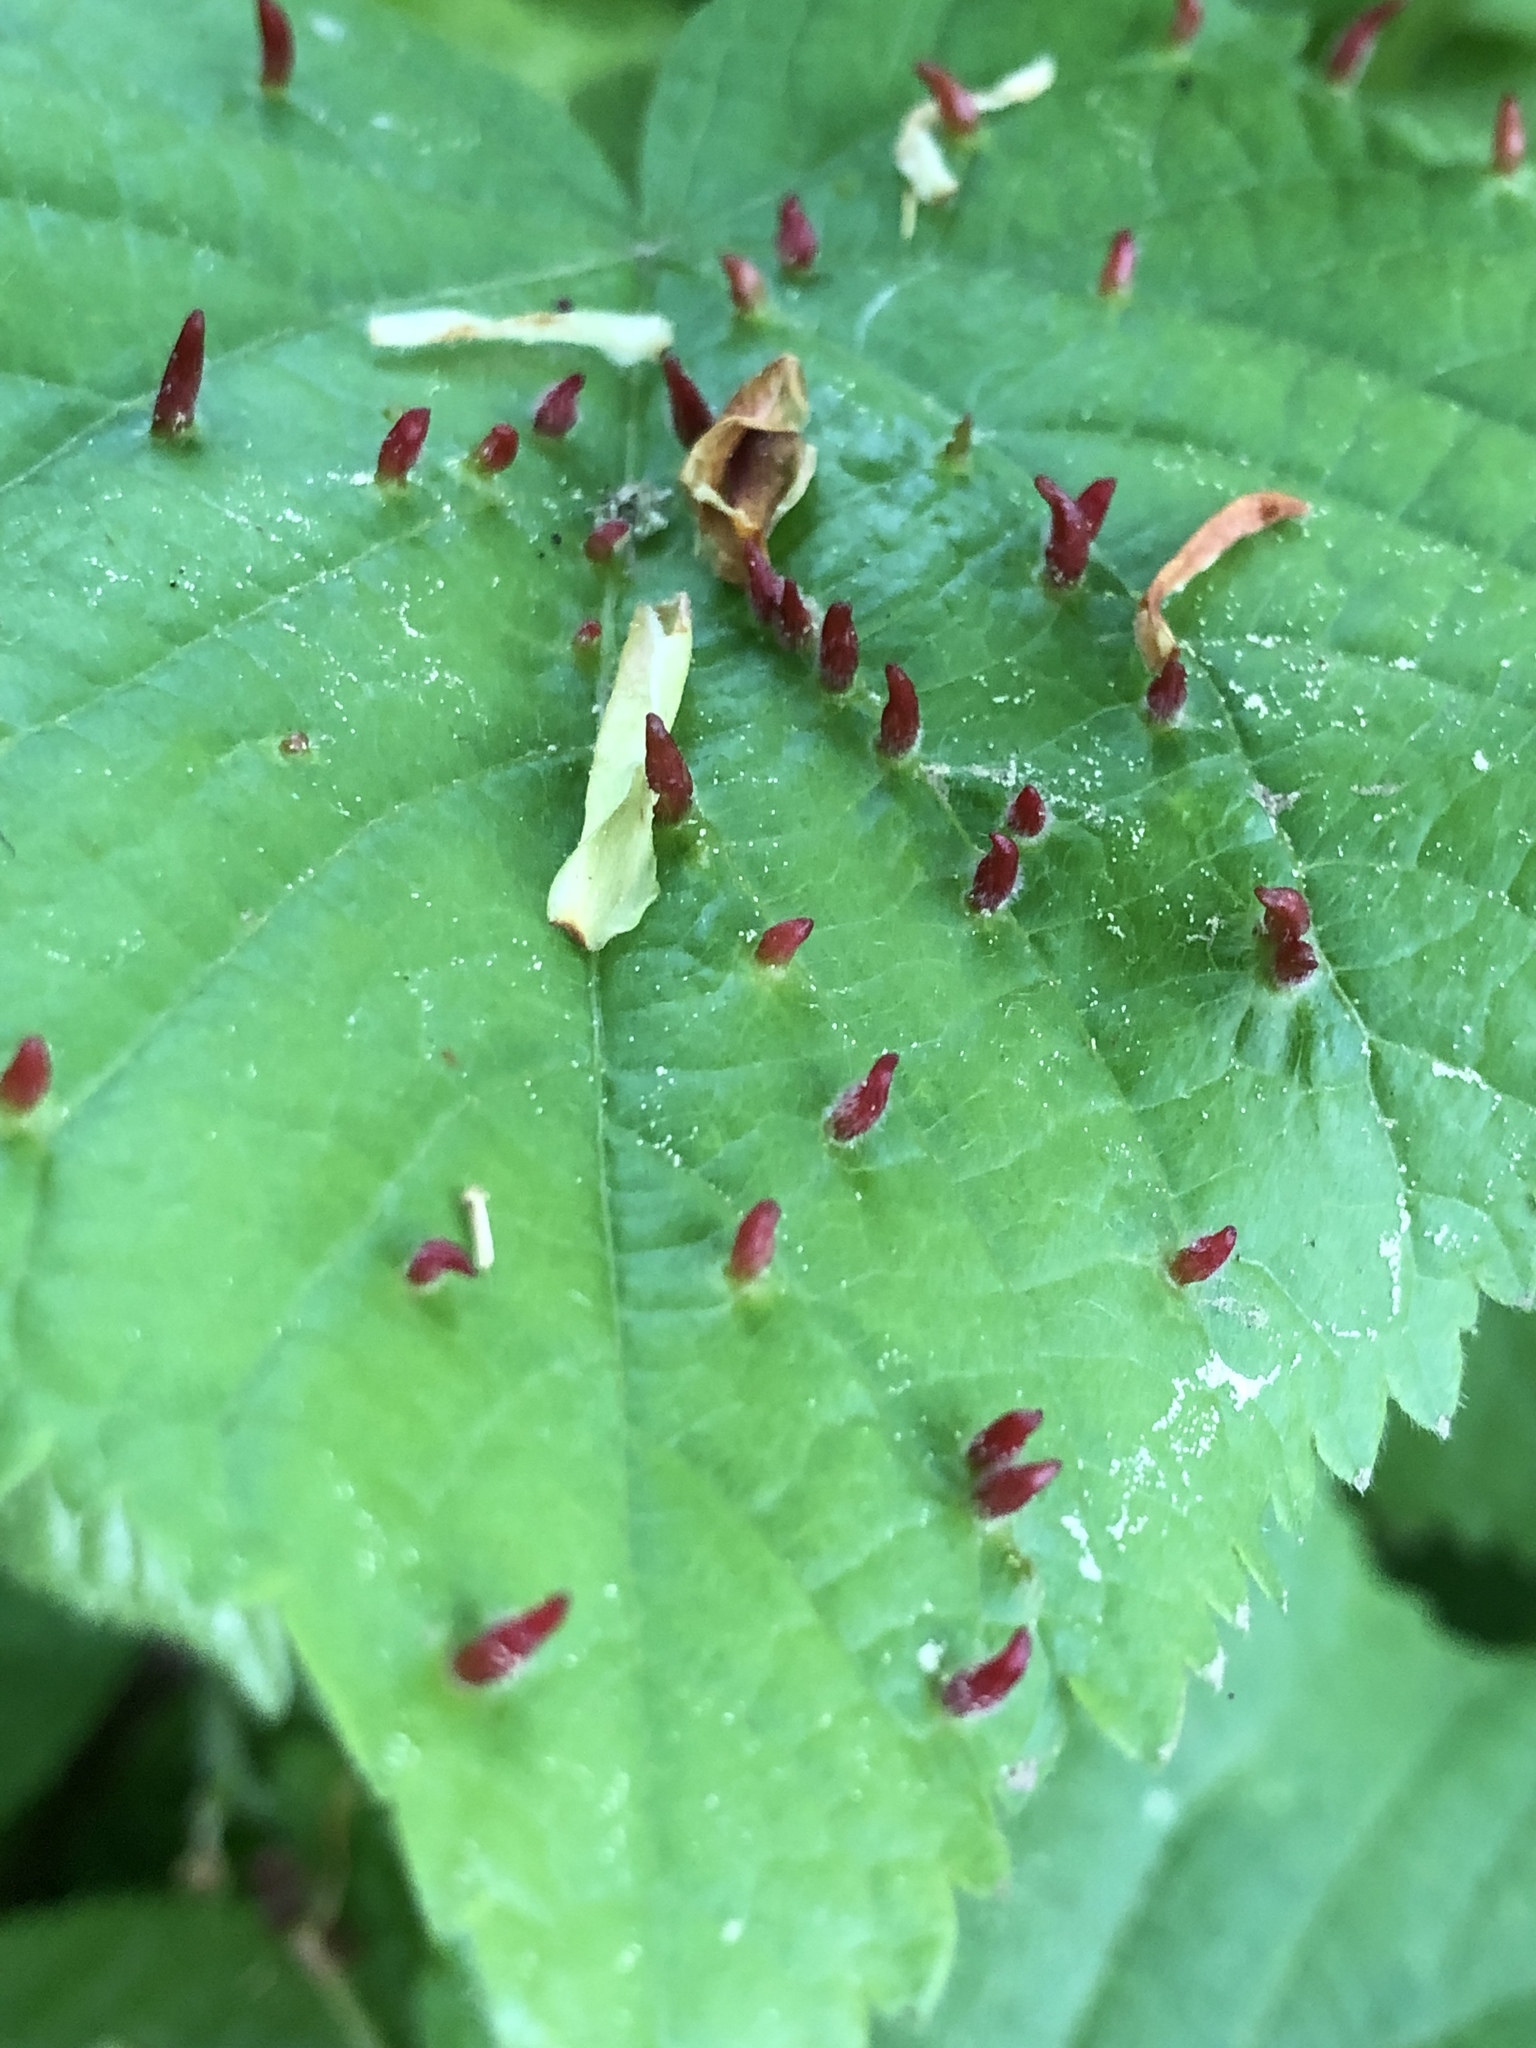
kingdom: Animalia
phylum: Arthropoda
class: Arachnida
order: Trombidiformes
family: Eriophyidae
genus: Eriophyes
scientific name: Eriophyes tiliae
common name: Red nail gall mite
